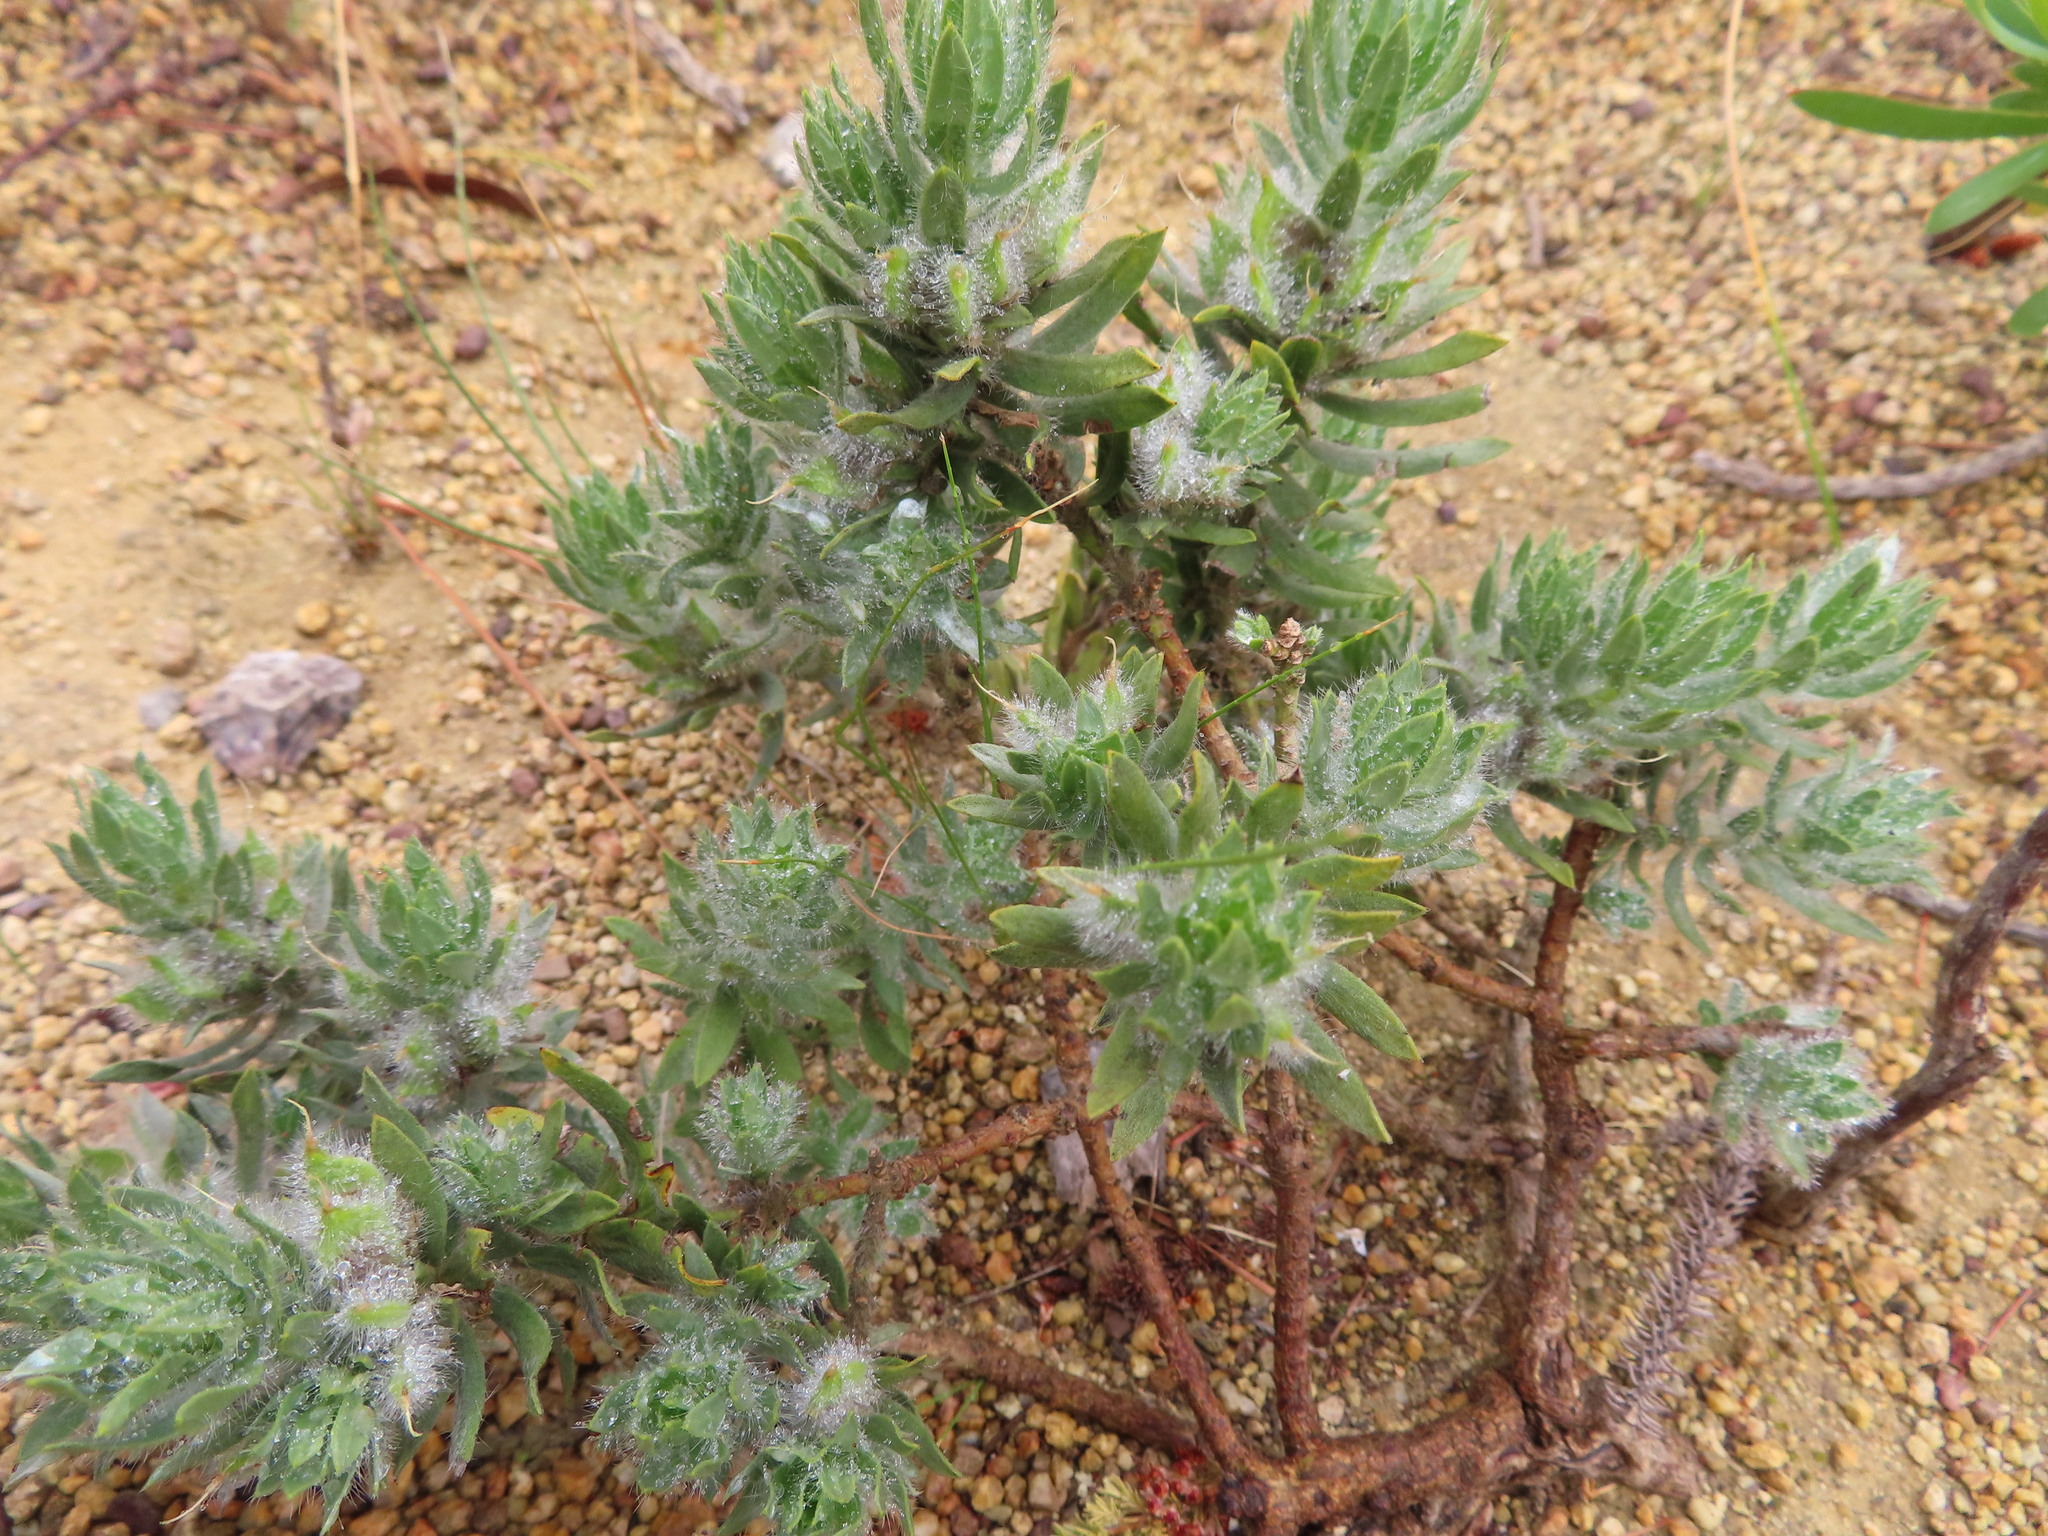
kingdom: Plantae
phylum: Tracheophyta
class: Magnoliopsida
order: Fabales
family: Fabaceae
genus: Xiphotheca
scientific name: Xiphotheca lanceolata
